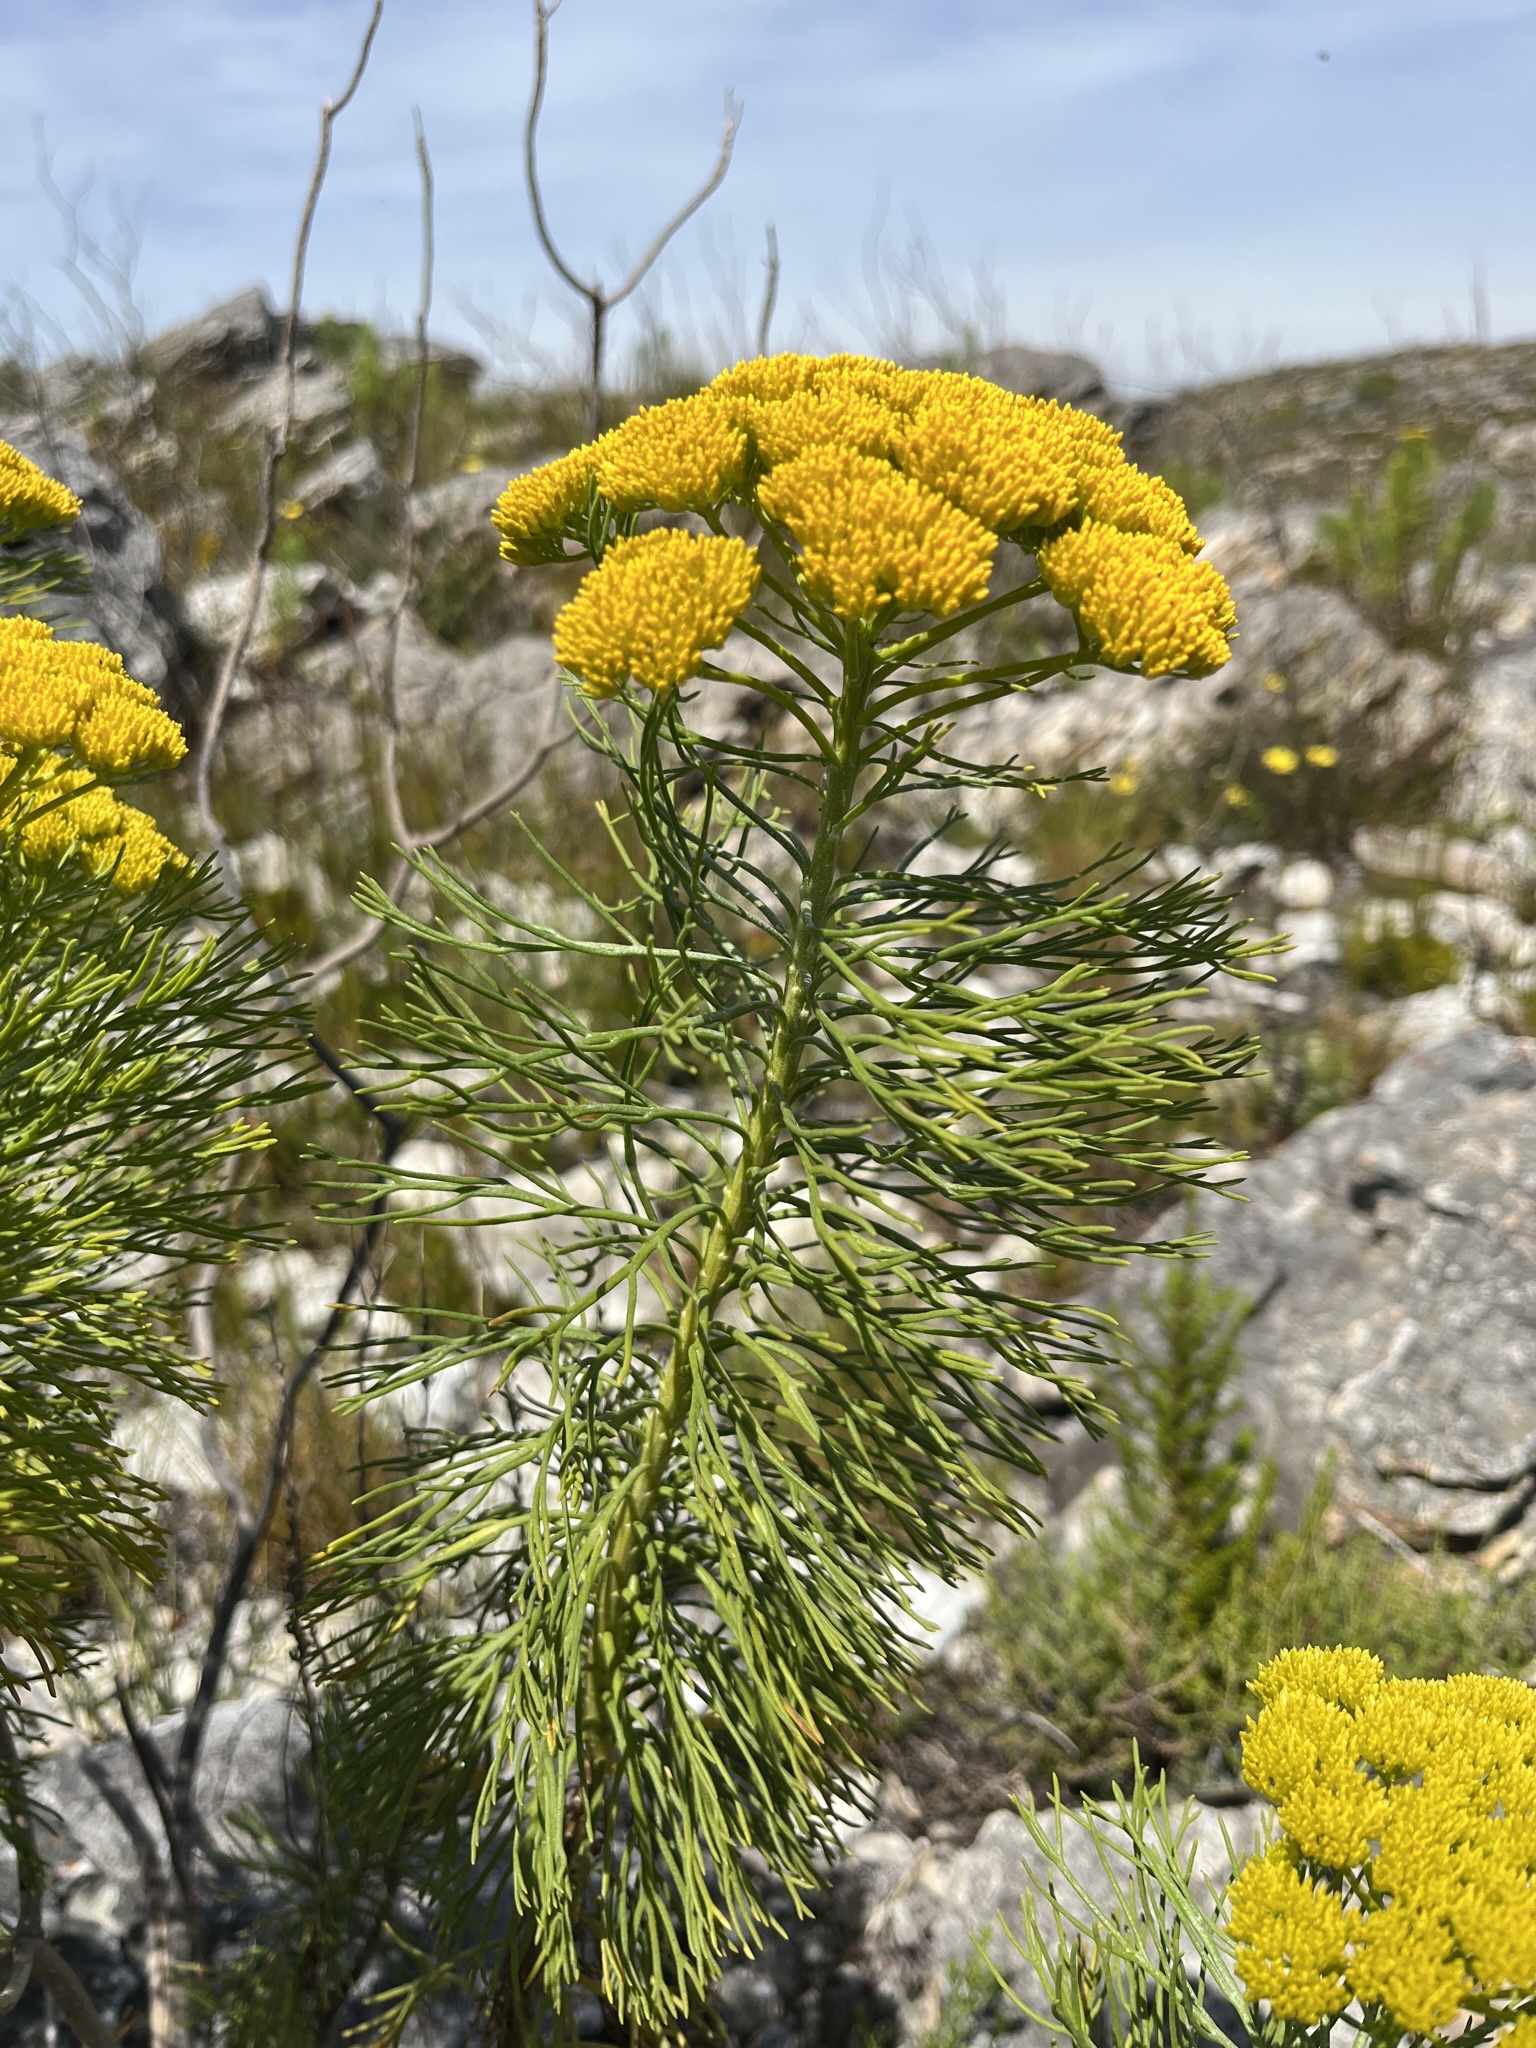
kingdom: Plantae
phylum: Tracheophyta
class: Magnoliopsida
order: Asterales
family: Asteraceae
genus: Hymenolepis
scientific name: Hymenolepis crithmifolia
